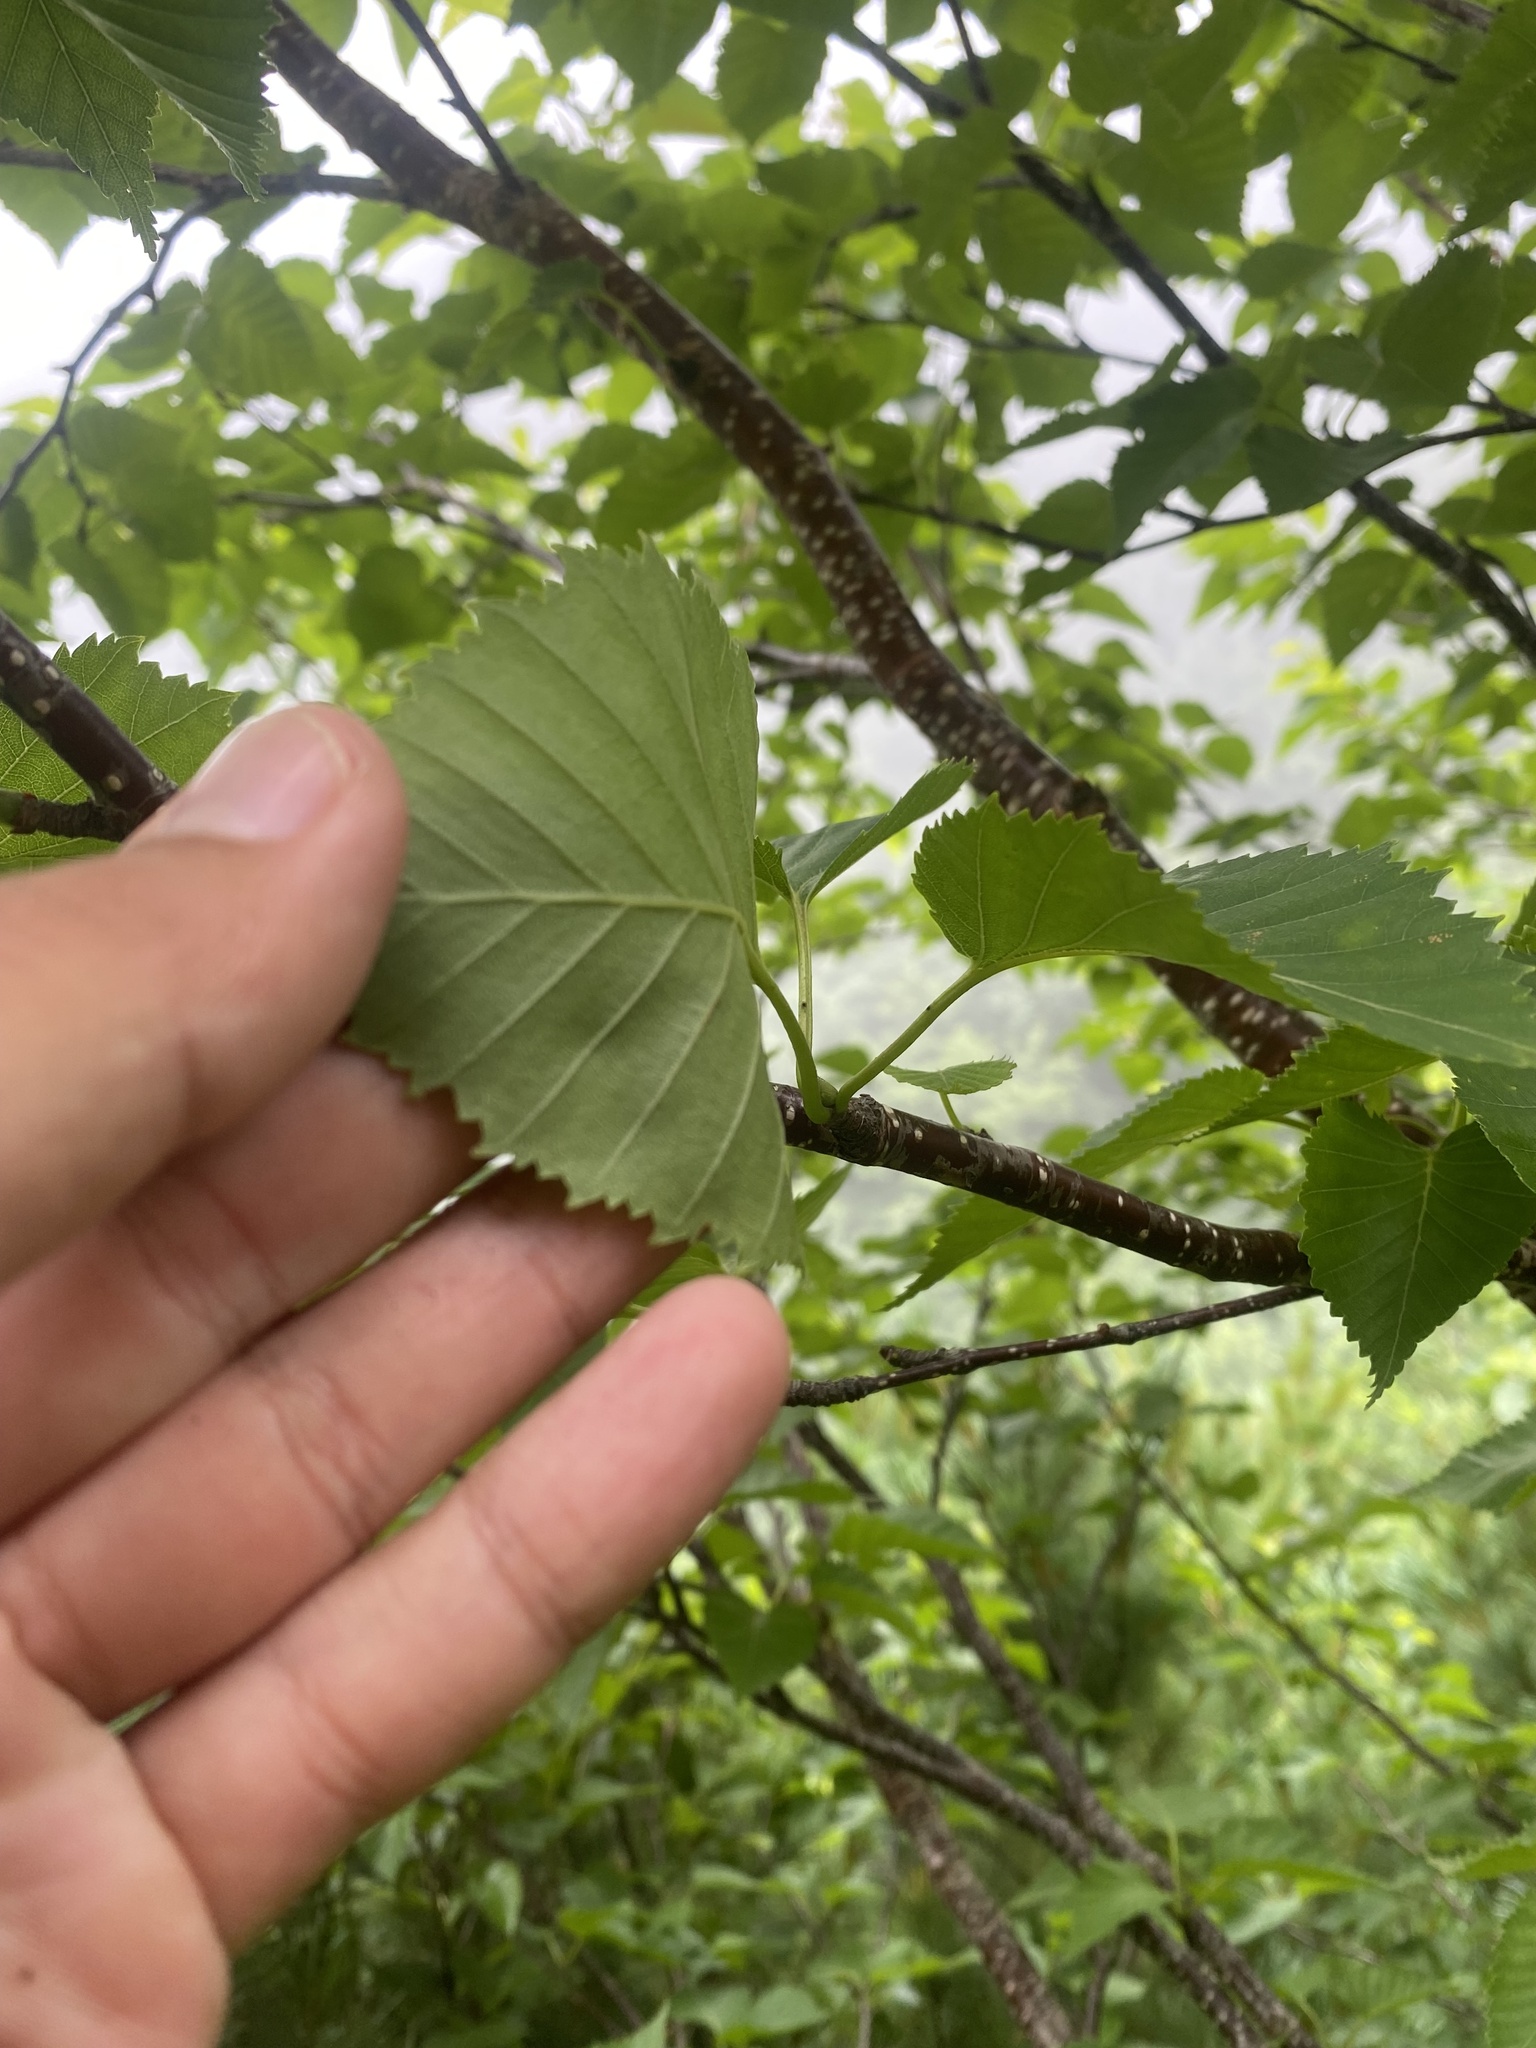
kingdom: Plantae
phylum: Tracheophyta
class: Magnoliopsida
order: Fagales
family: Betulaceae
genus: Betula
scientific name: Betula ermanii
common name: Erman's birch
